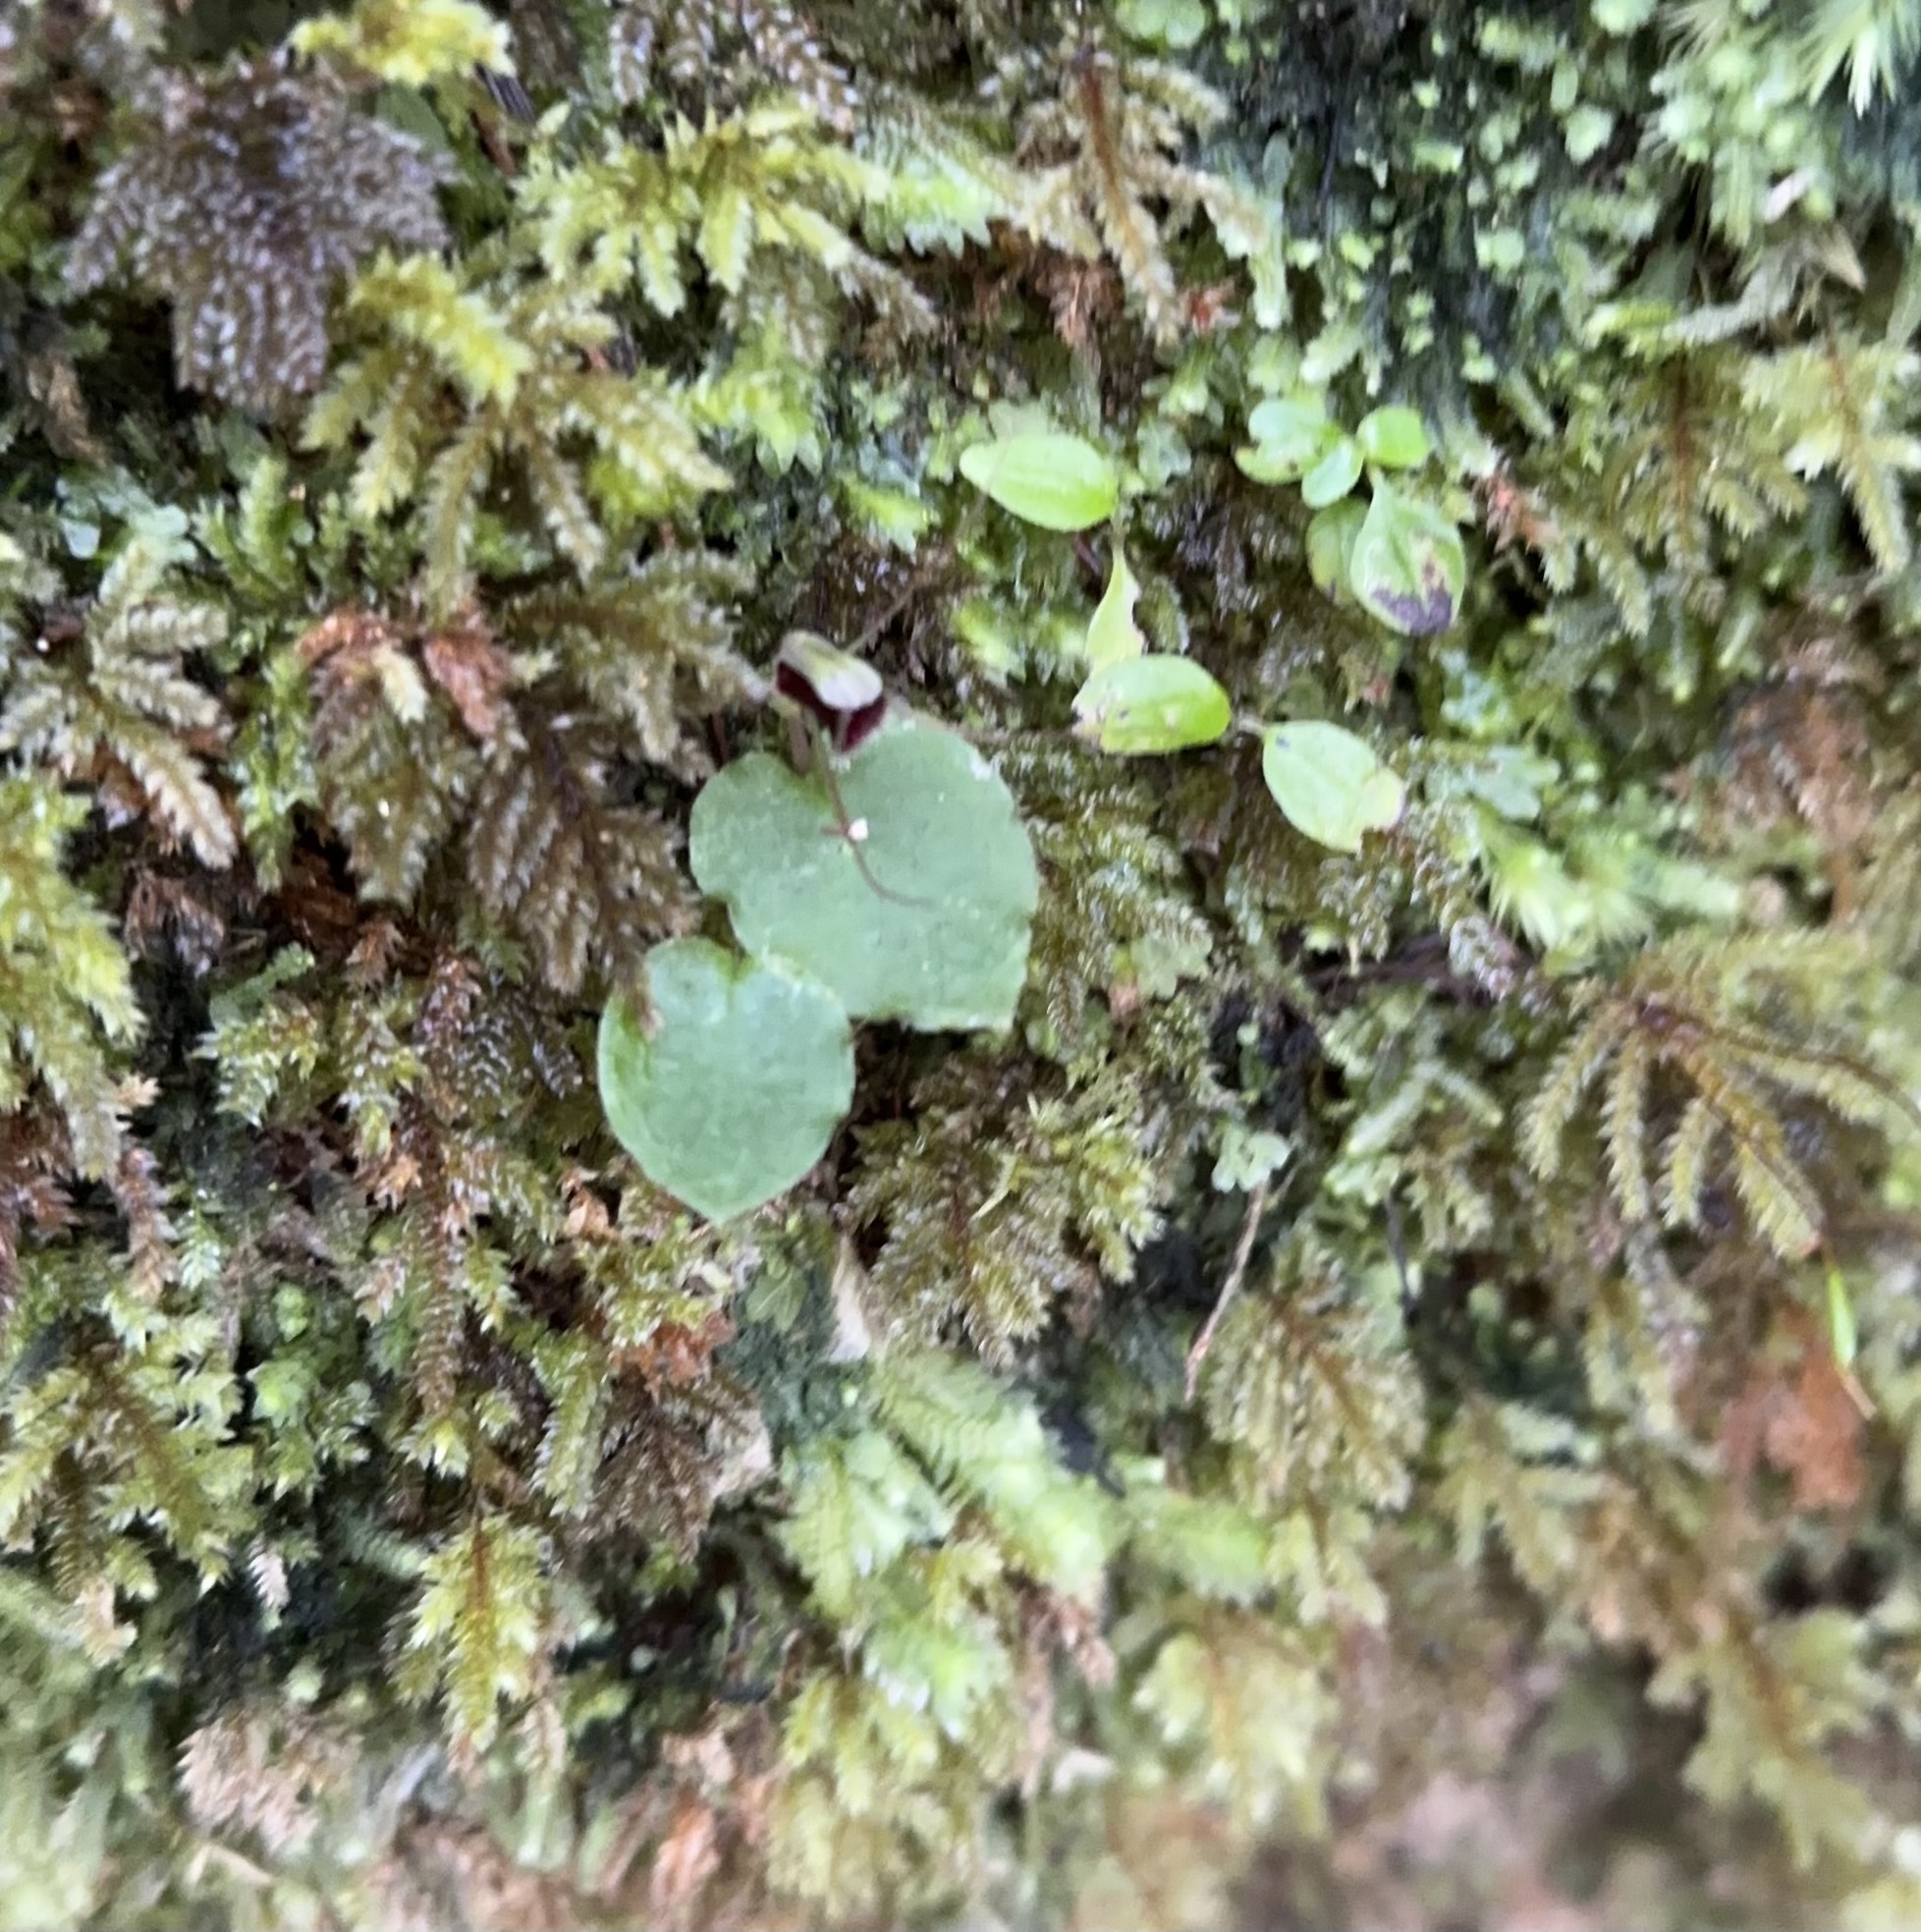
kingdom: Plantae
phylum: Tracheophyta
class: Liliopsida
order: Asparagales
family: Orchidaceae
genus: Corybas
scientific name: Corybas oblongus
